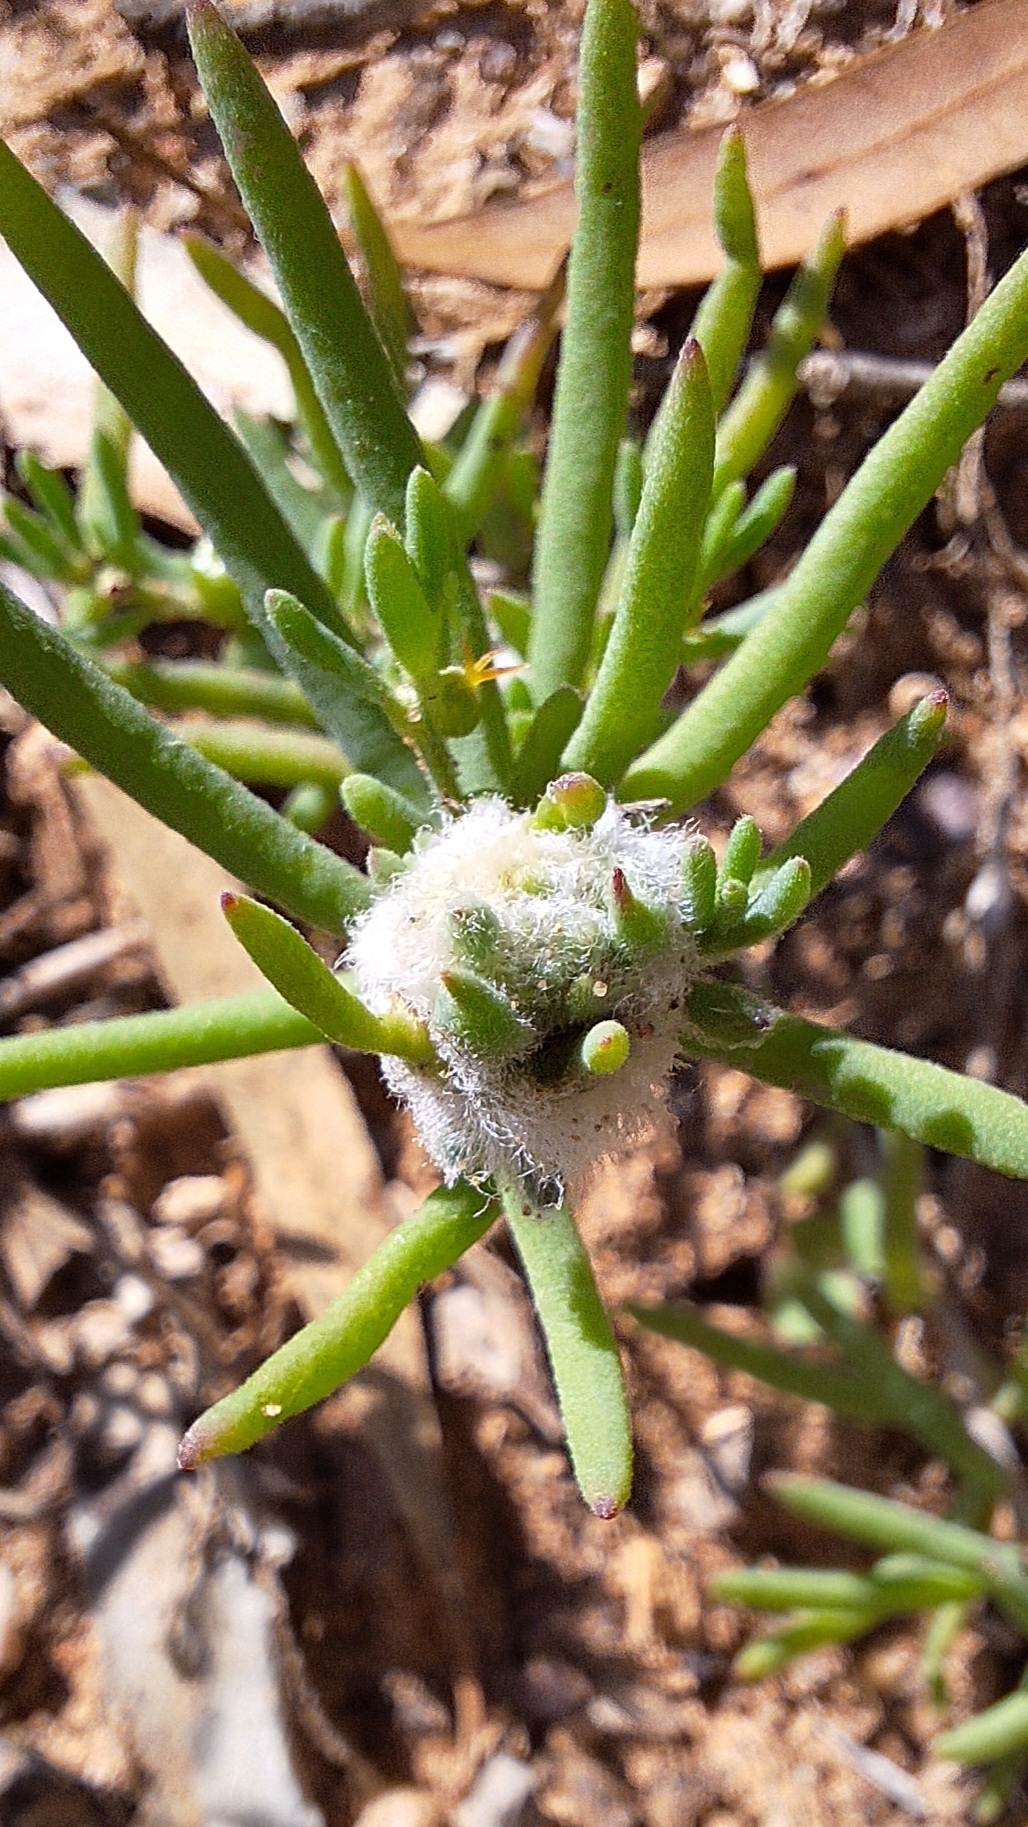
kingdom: Animalia
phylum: Arthropoda
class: Insecta
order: Diptera
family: Cecidomyiidae
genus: Asphondylia
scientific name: Asphondylia tonsura
